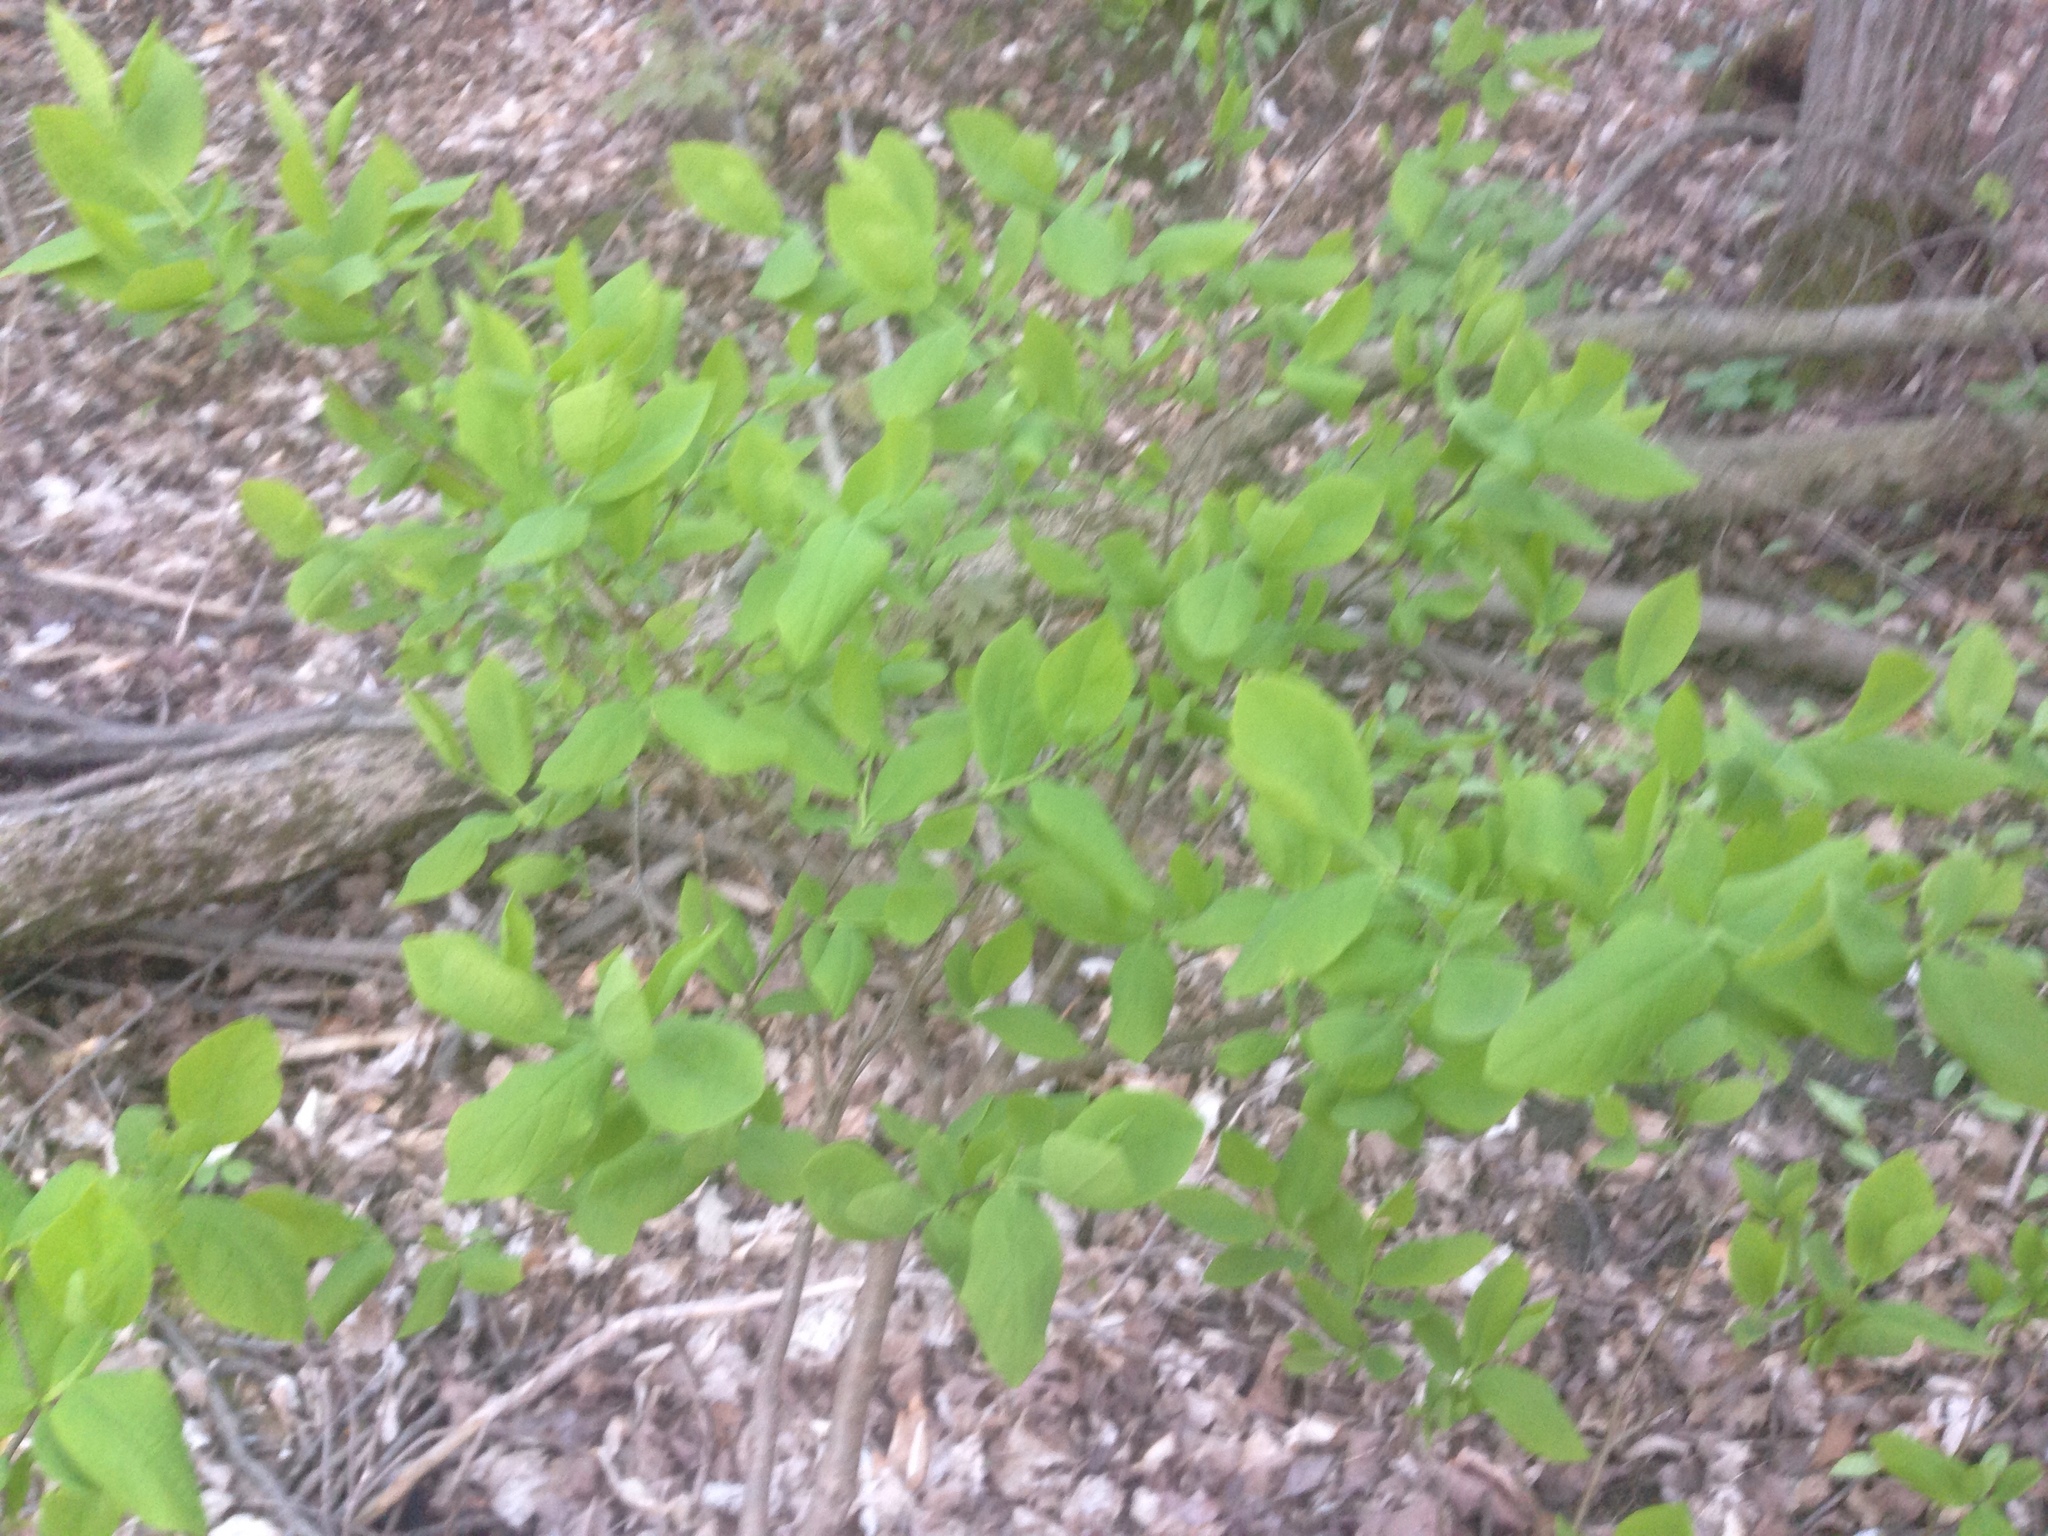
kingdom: Plantae
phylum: Tracheophyta
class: Magnoliopsida
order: Malvales
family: Thymelaeaceae
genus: Dirca
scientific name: Dirca palustris
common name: Leatherwood
